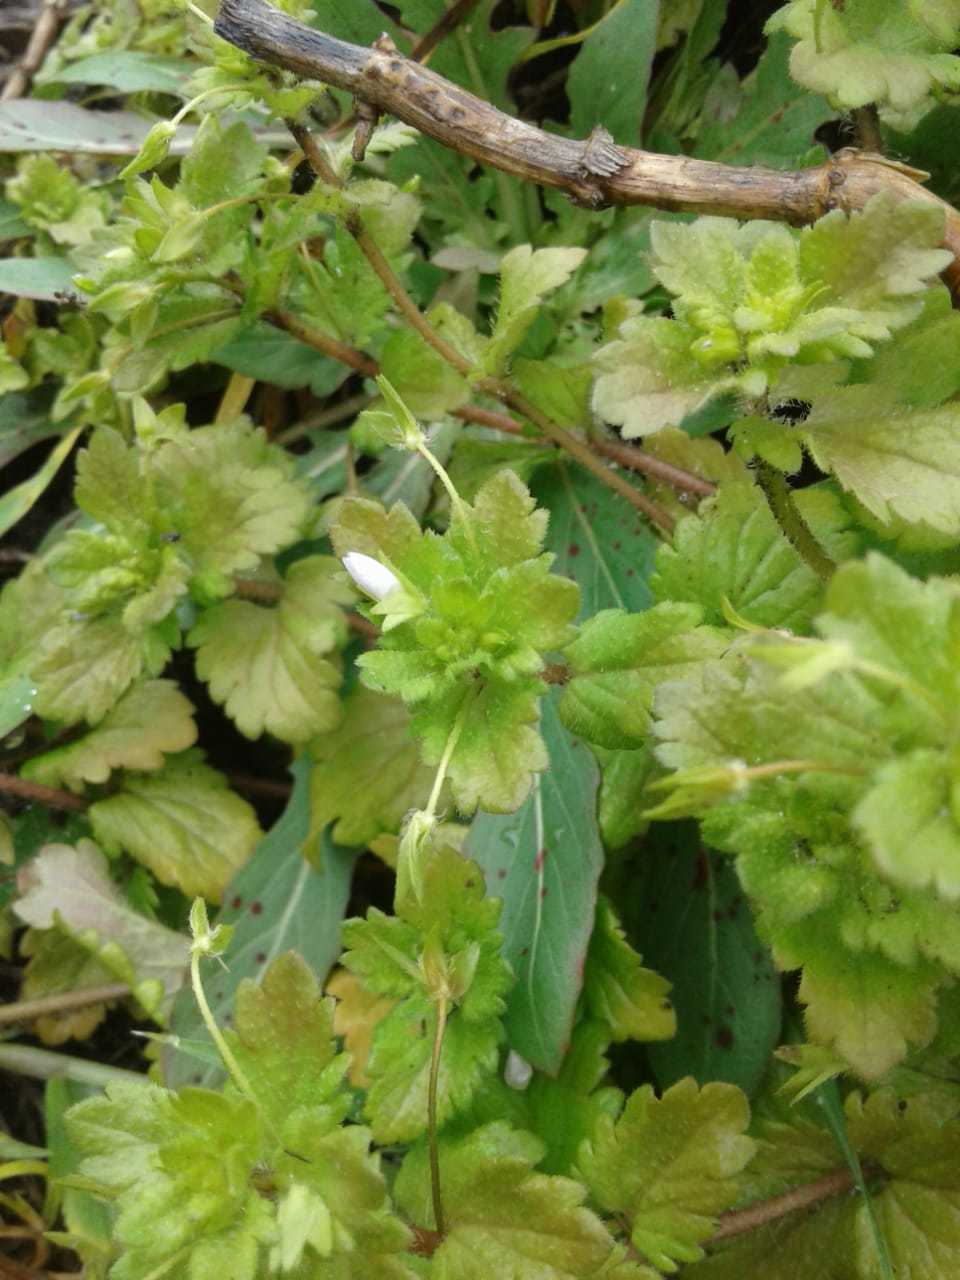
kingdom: Plantae
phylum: Tracheophyta
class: Magnoliopsida
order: Lamiales
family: Plantaginaceae
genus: Veronica
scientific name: Veronica persica
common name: Common field-speedwell
